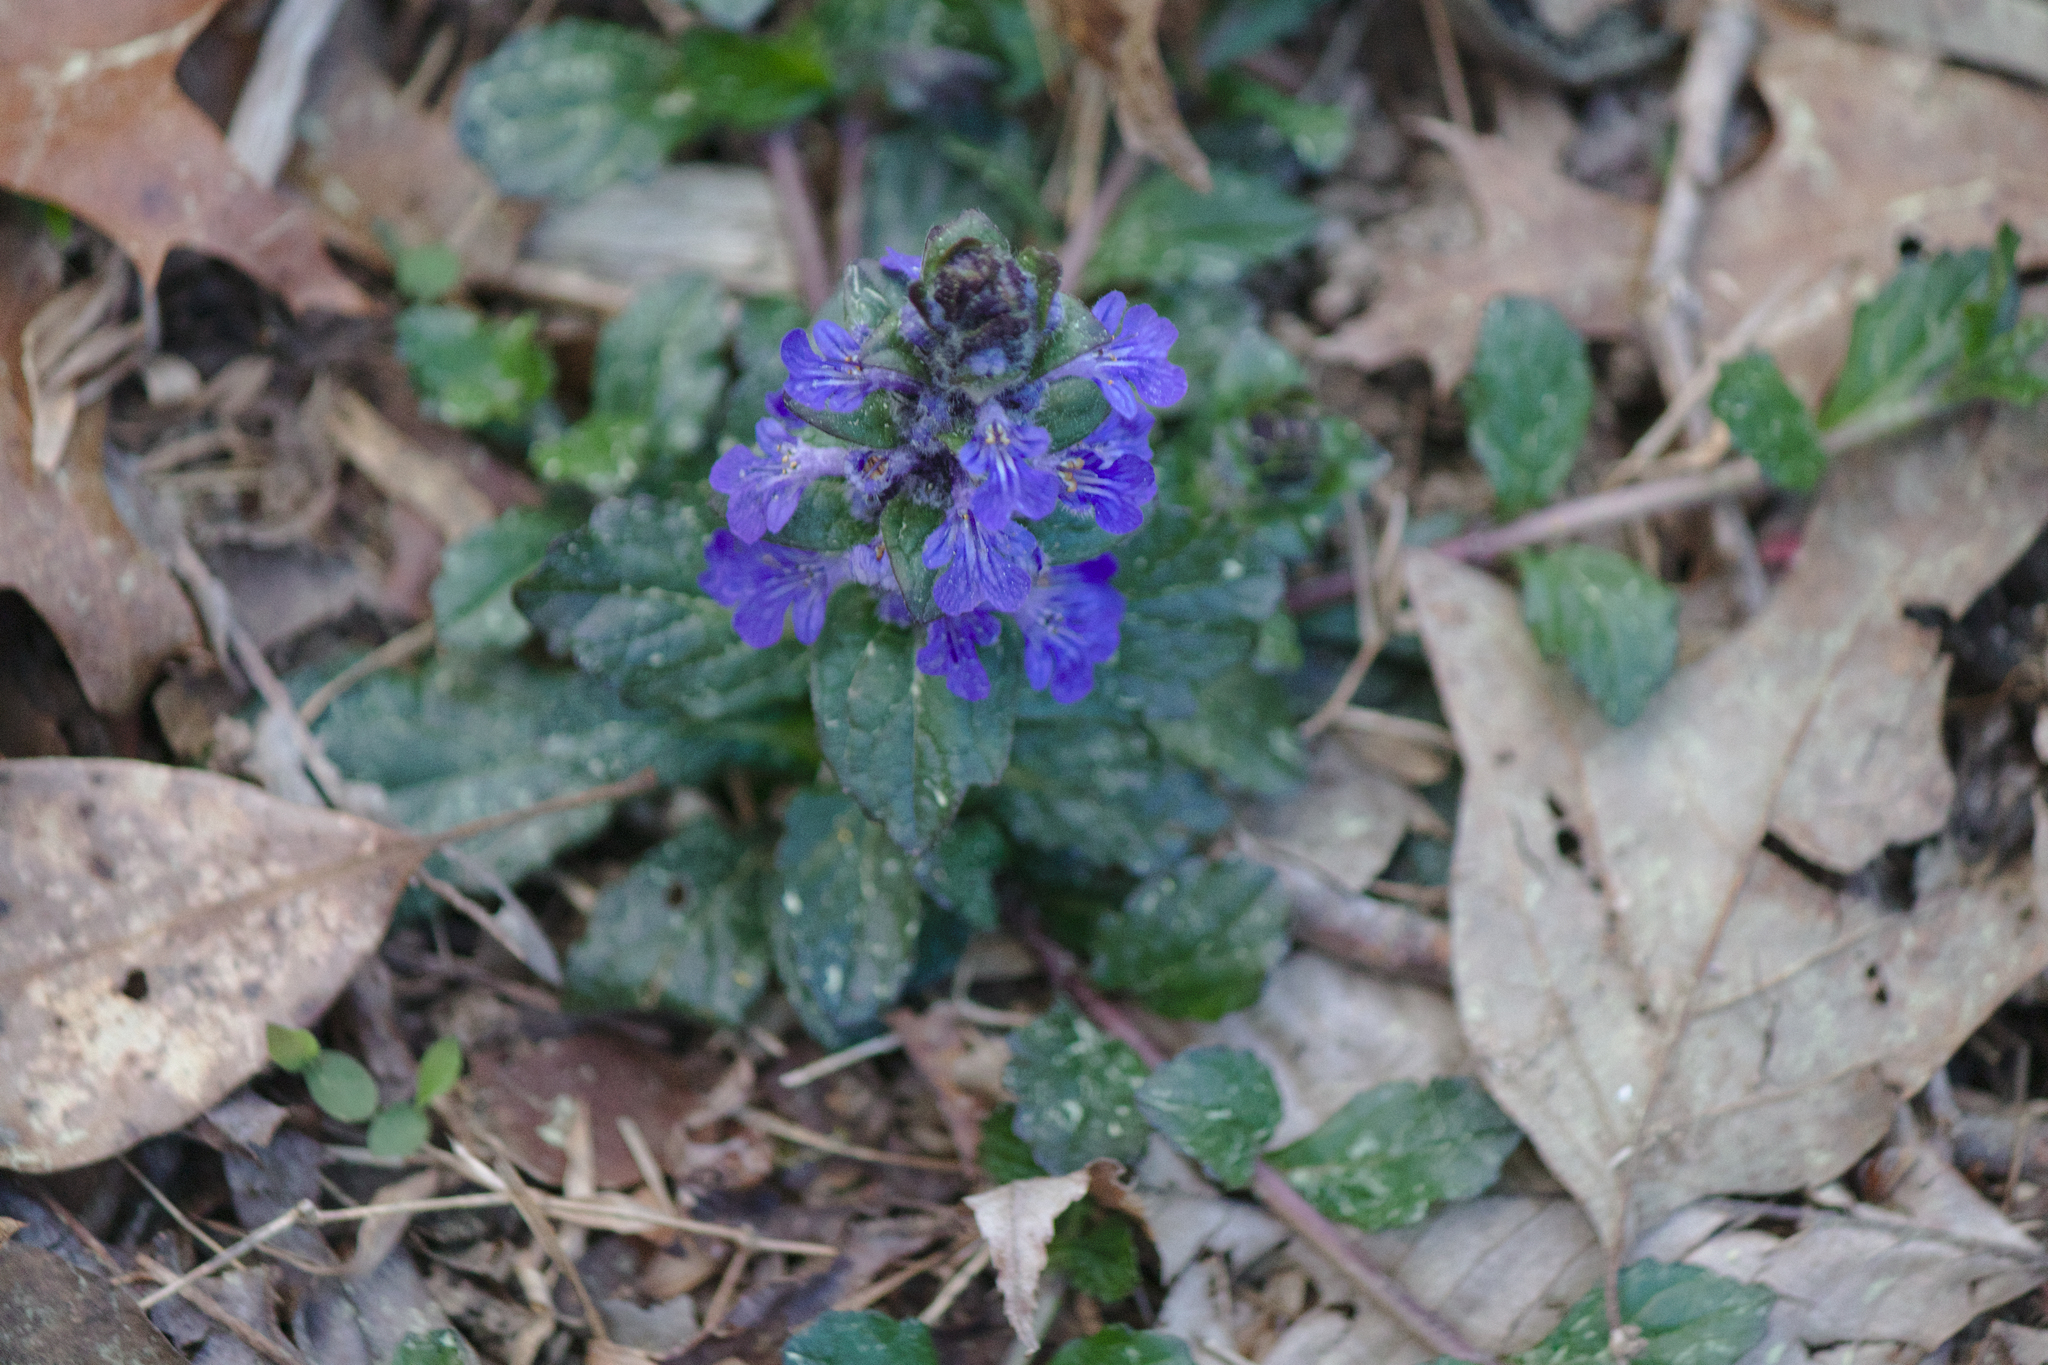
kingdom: Plantae
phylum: Tracheophyta
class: Magnoliopsida
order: Lamiales
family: Lamiaceae
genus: Ajuga
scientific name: Ajuga reptans
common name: Bugle
